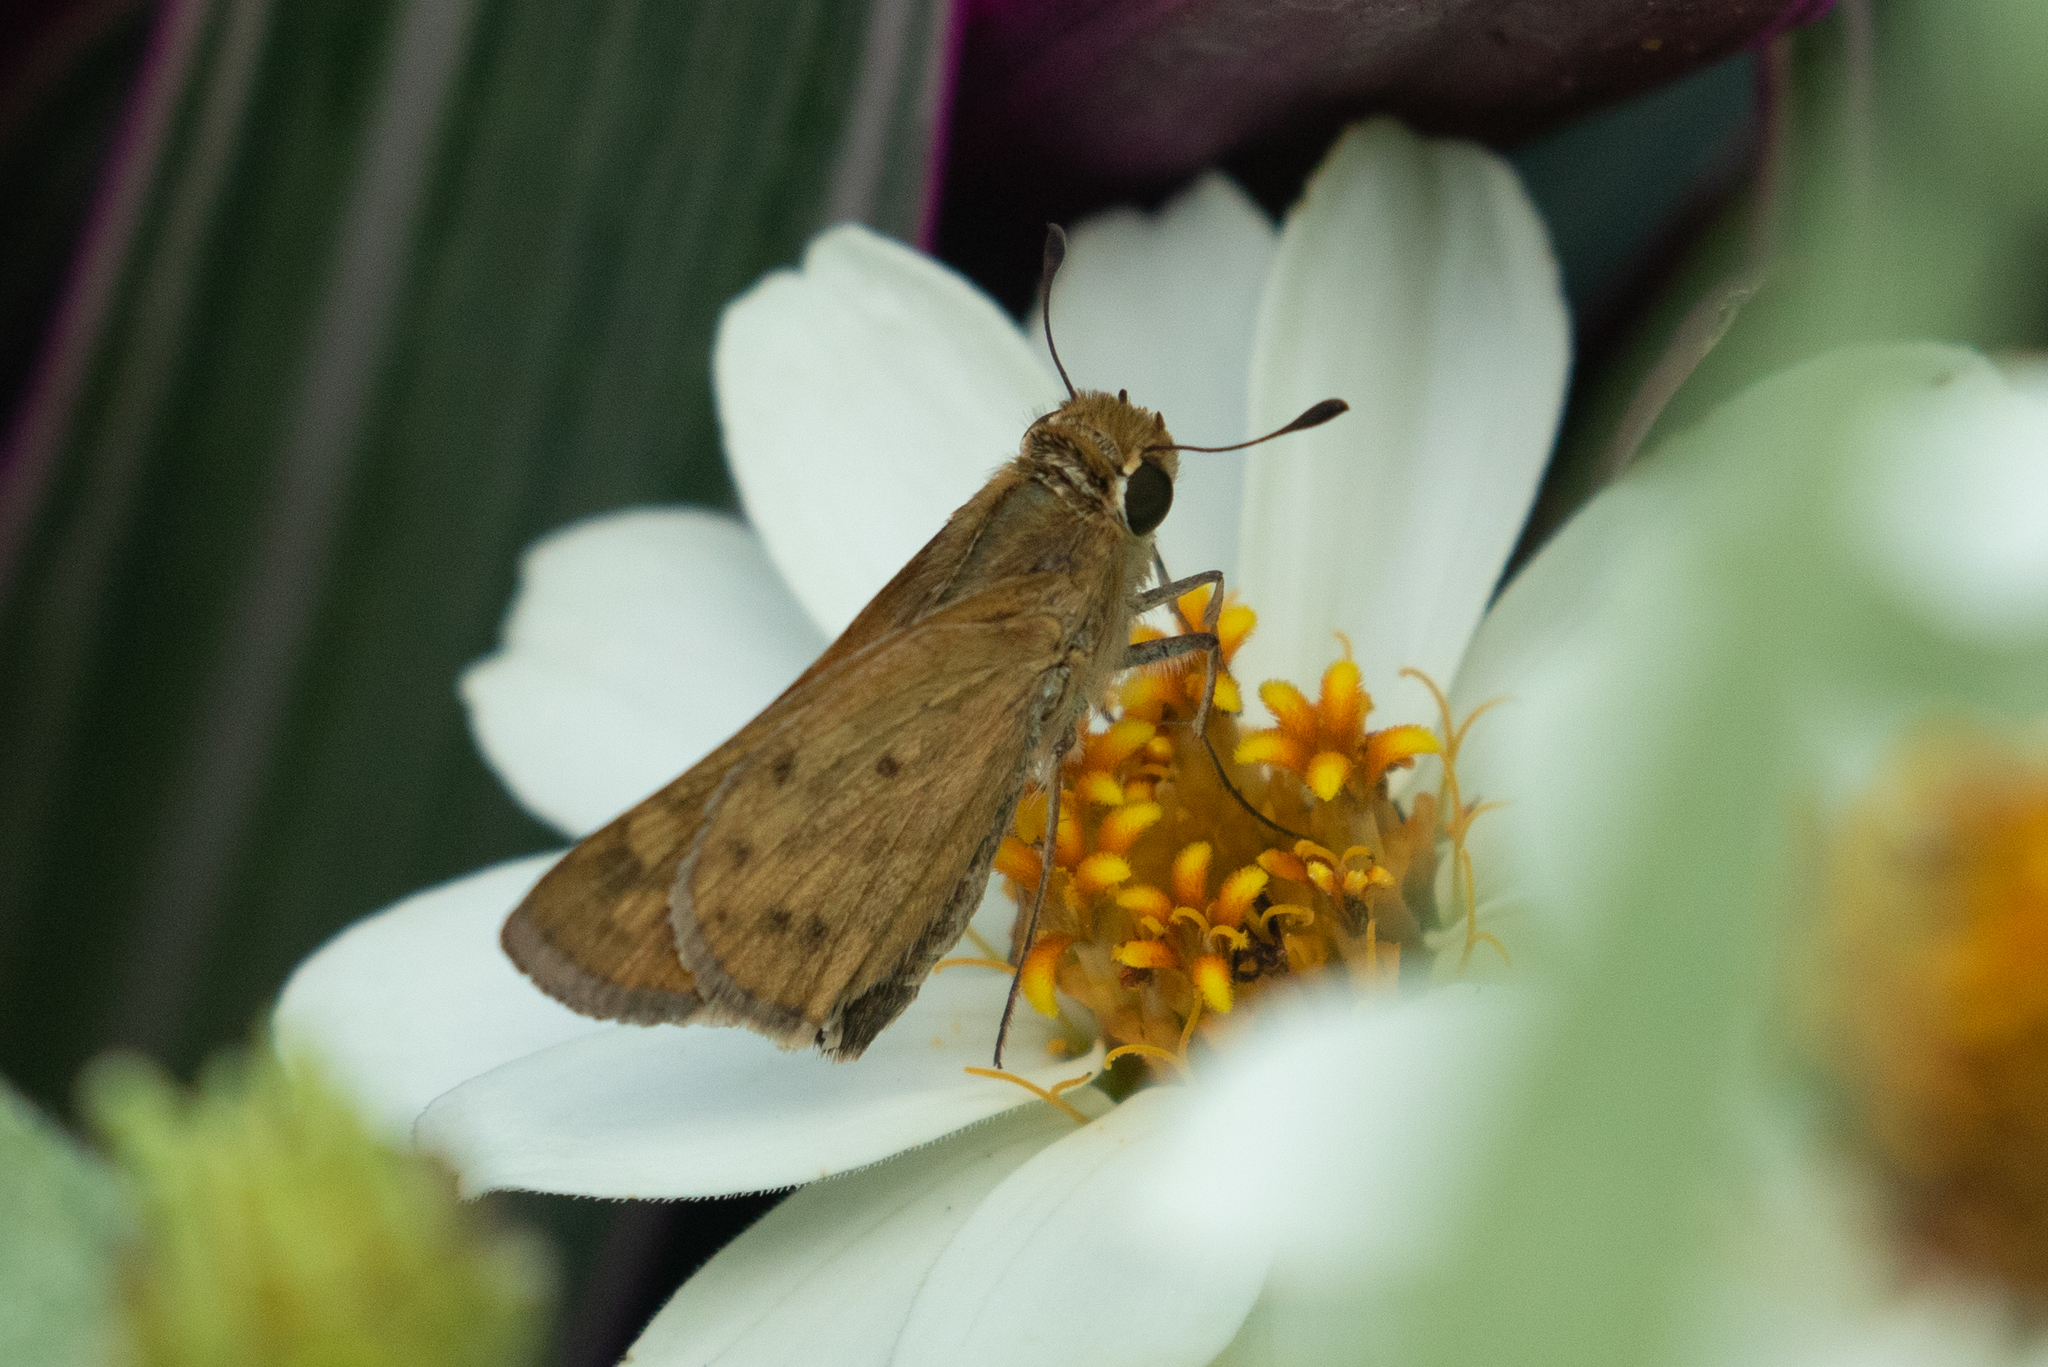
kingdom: Animalia
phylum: Arthropoda
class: Insecta
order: Lepidoptera
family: Hesperiidae
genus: Hylephila
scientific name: Hylephila phyleus
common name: Fiery skipper
